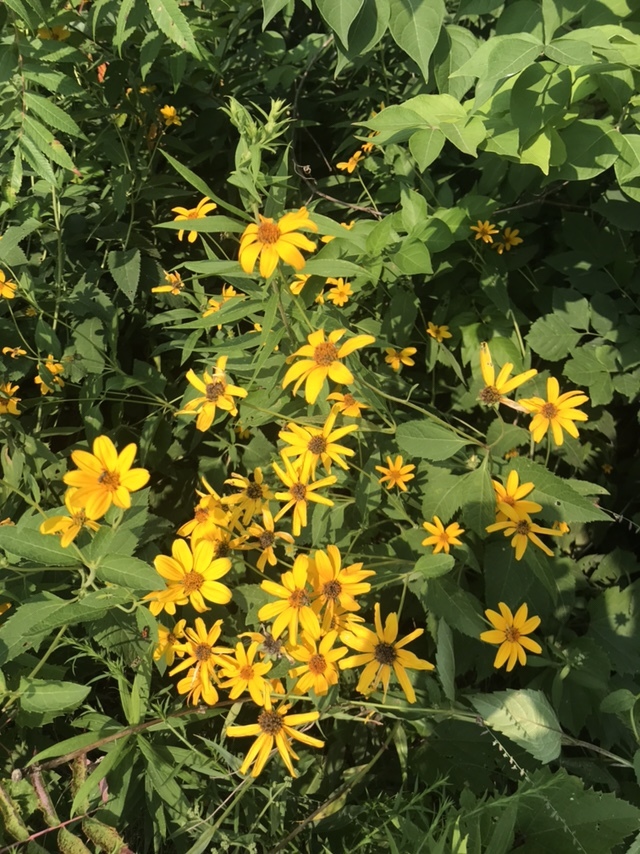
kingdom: Plantae
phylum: Tracheophyta
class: Magnoliopsida
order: Asterales
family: Asteraceae
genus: Heliopsis
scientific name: Heliopsis helianthoides
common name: False sunflower
